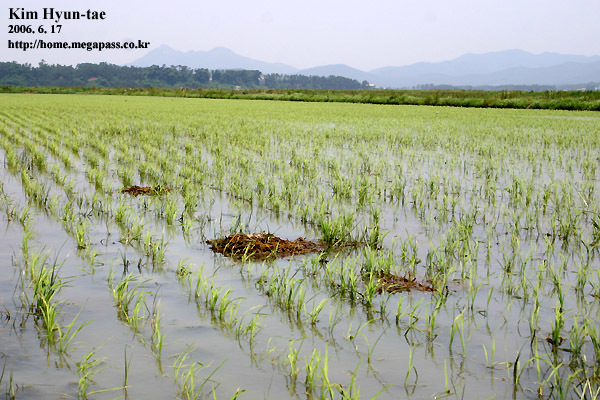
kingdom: Animalia
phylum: Chordata
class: Aves
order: Charadriiformes
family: Recurvirostridae
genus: Himantopus
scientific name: Himantopus himantopus
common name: Black-winged stilt
